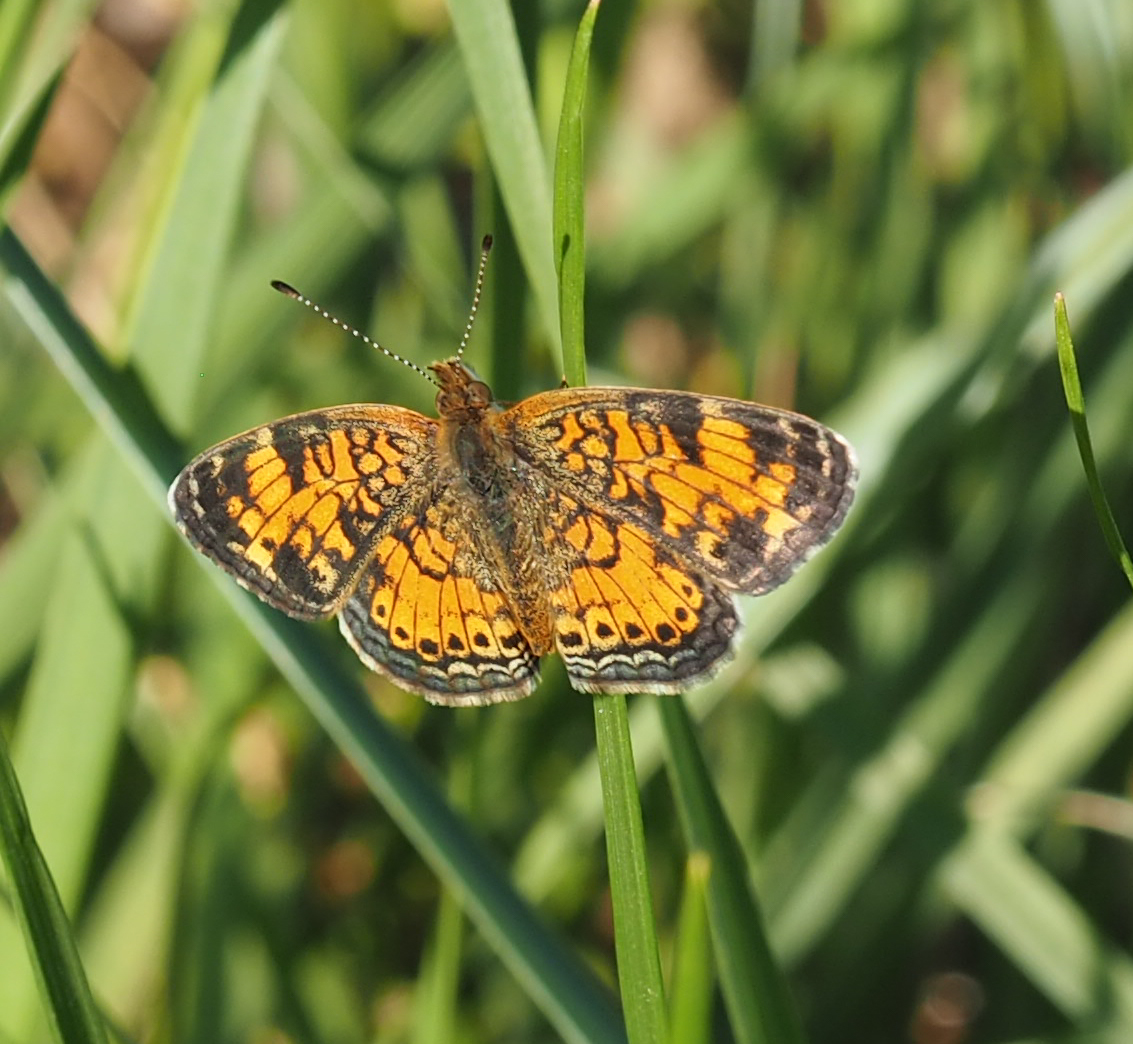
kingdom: Animalia
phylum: Arthropoda
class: Insecta
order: Lepidoptera
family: Nymphalidae
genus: Phyciodes
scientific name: Phyciodes tharos
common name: Pearl crescent
